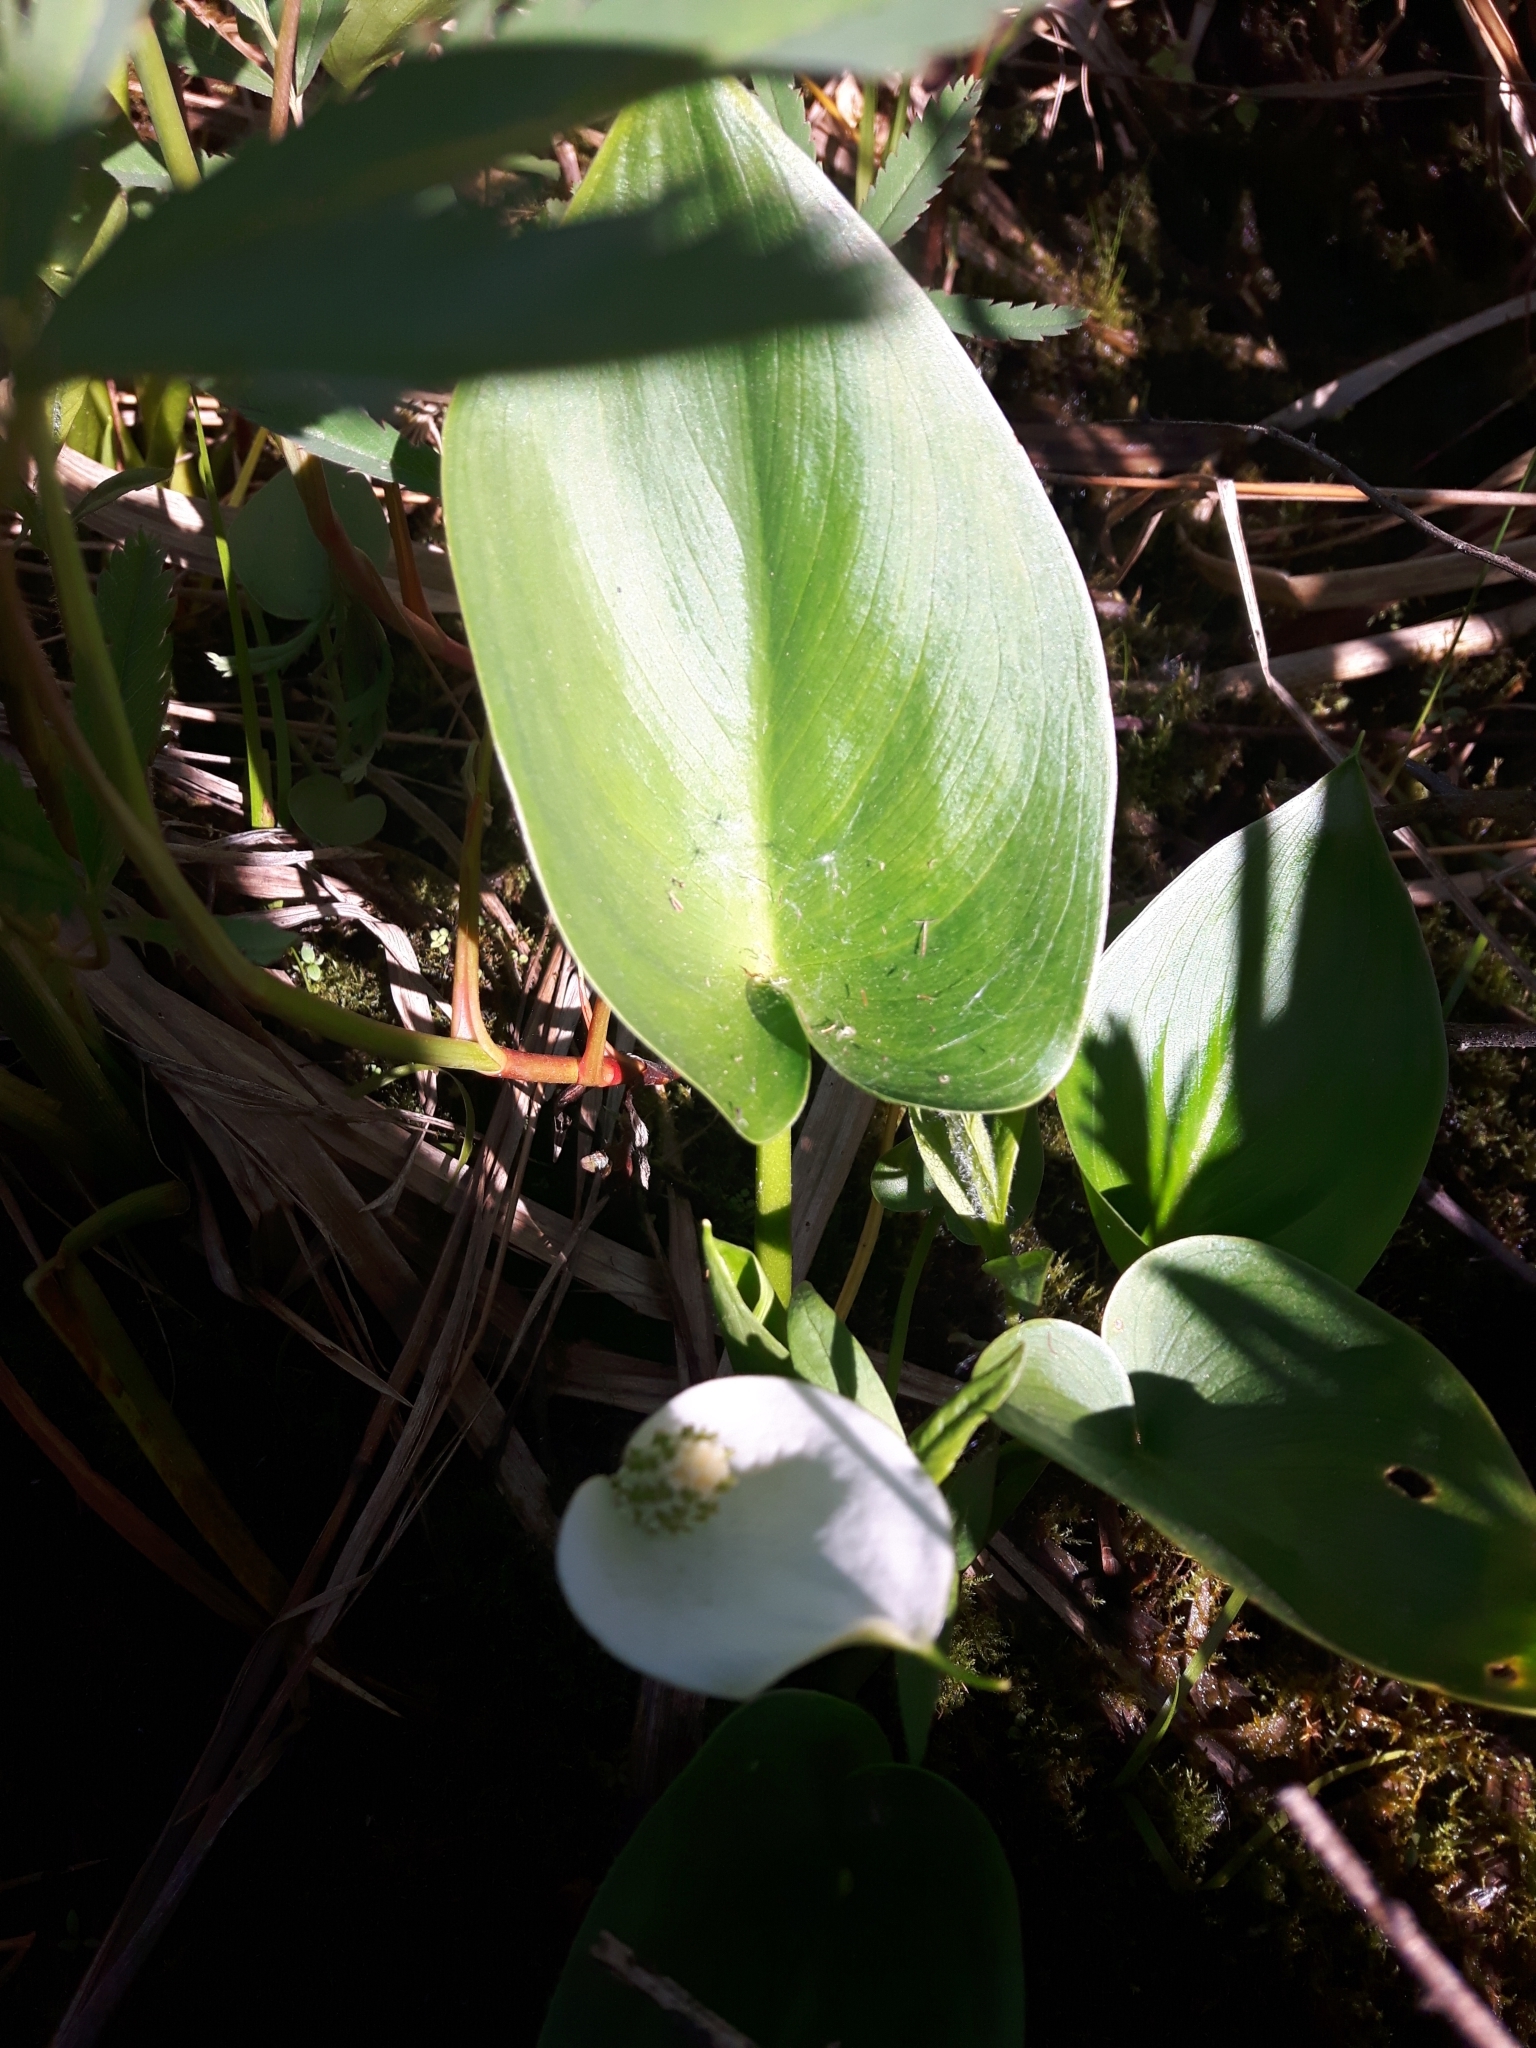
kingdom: Plantae
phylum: Tracheophyta
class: Liliopsida
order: Alismatales
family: Araceae
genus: Calla
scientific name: Calla palustris
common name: Bog arum
